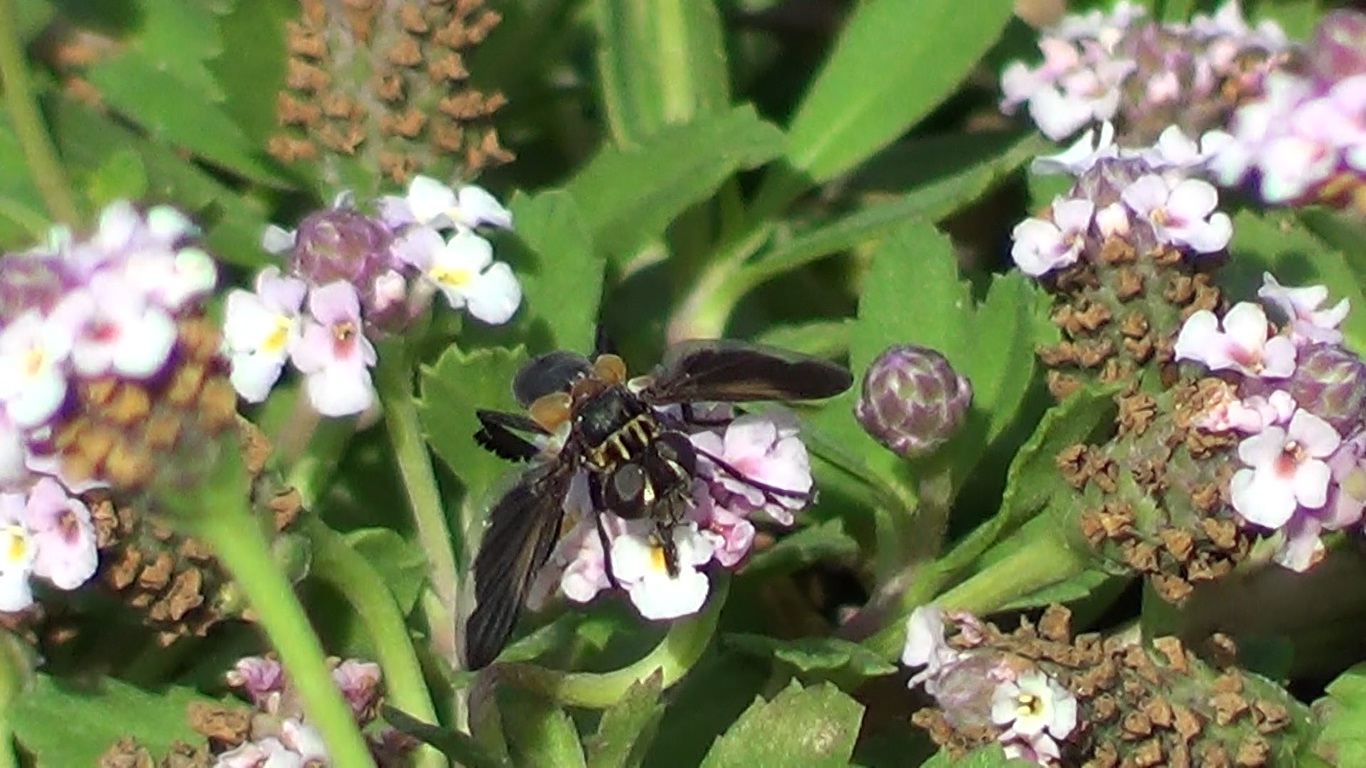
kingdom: Animalia
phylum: Arthropoda
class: Insecta
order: Diptera
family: Tachinidae
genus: Trichopoda
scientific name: Trichopoda pictipennis
